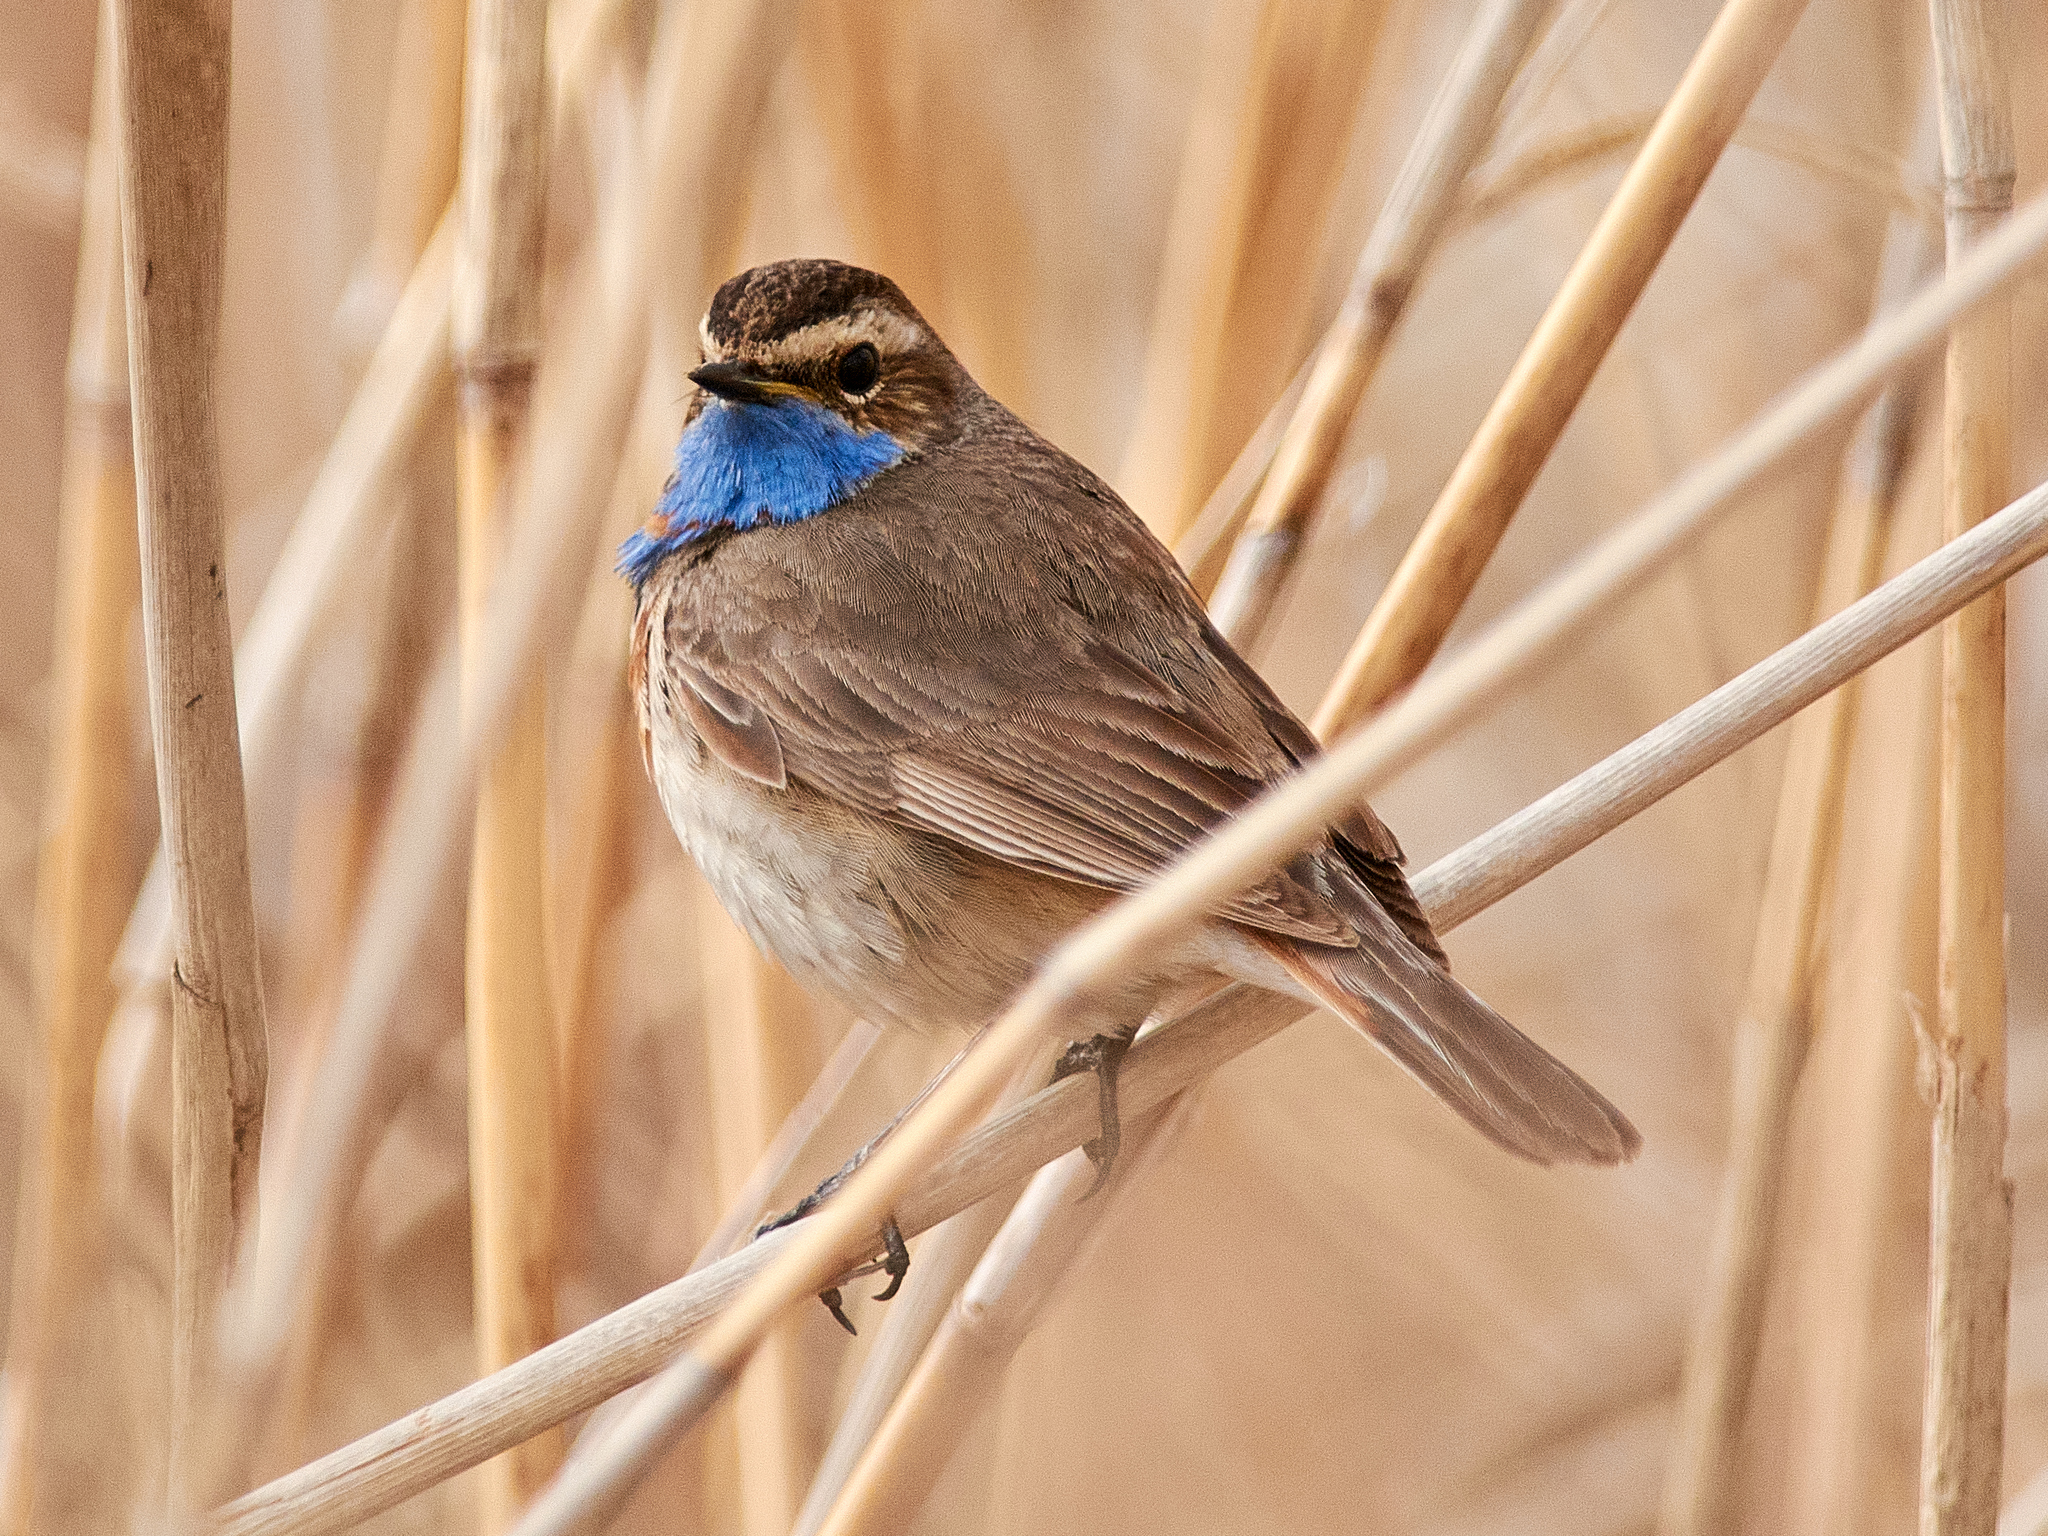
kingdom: Animalia
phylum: Chordata
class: Aves
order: Passeriformes
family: Muscicapidae
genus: Luscinia
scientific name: Luscinia svecica
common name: Bluethroat
